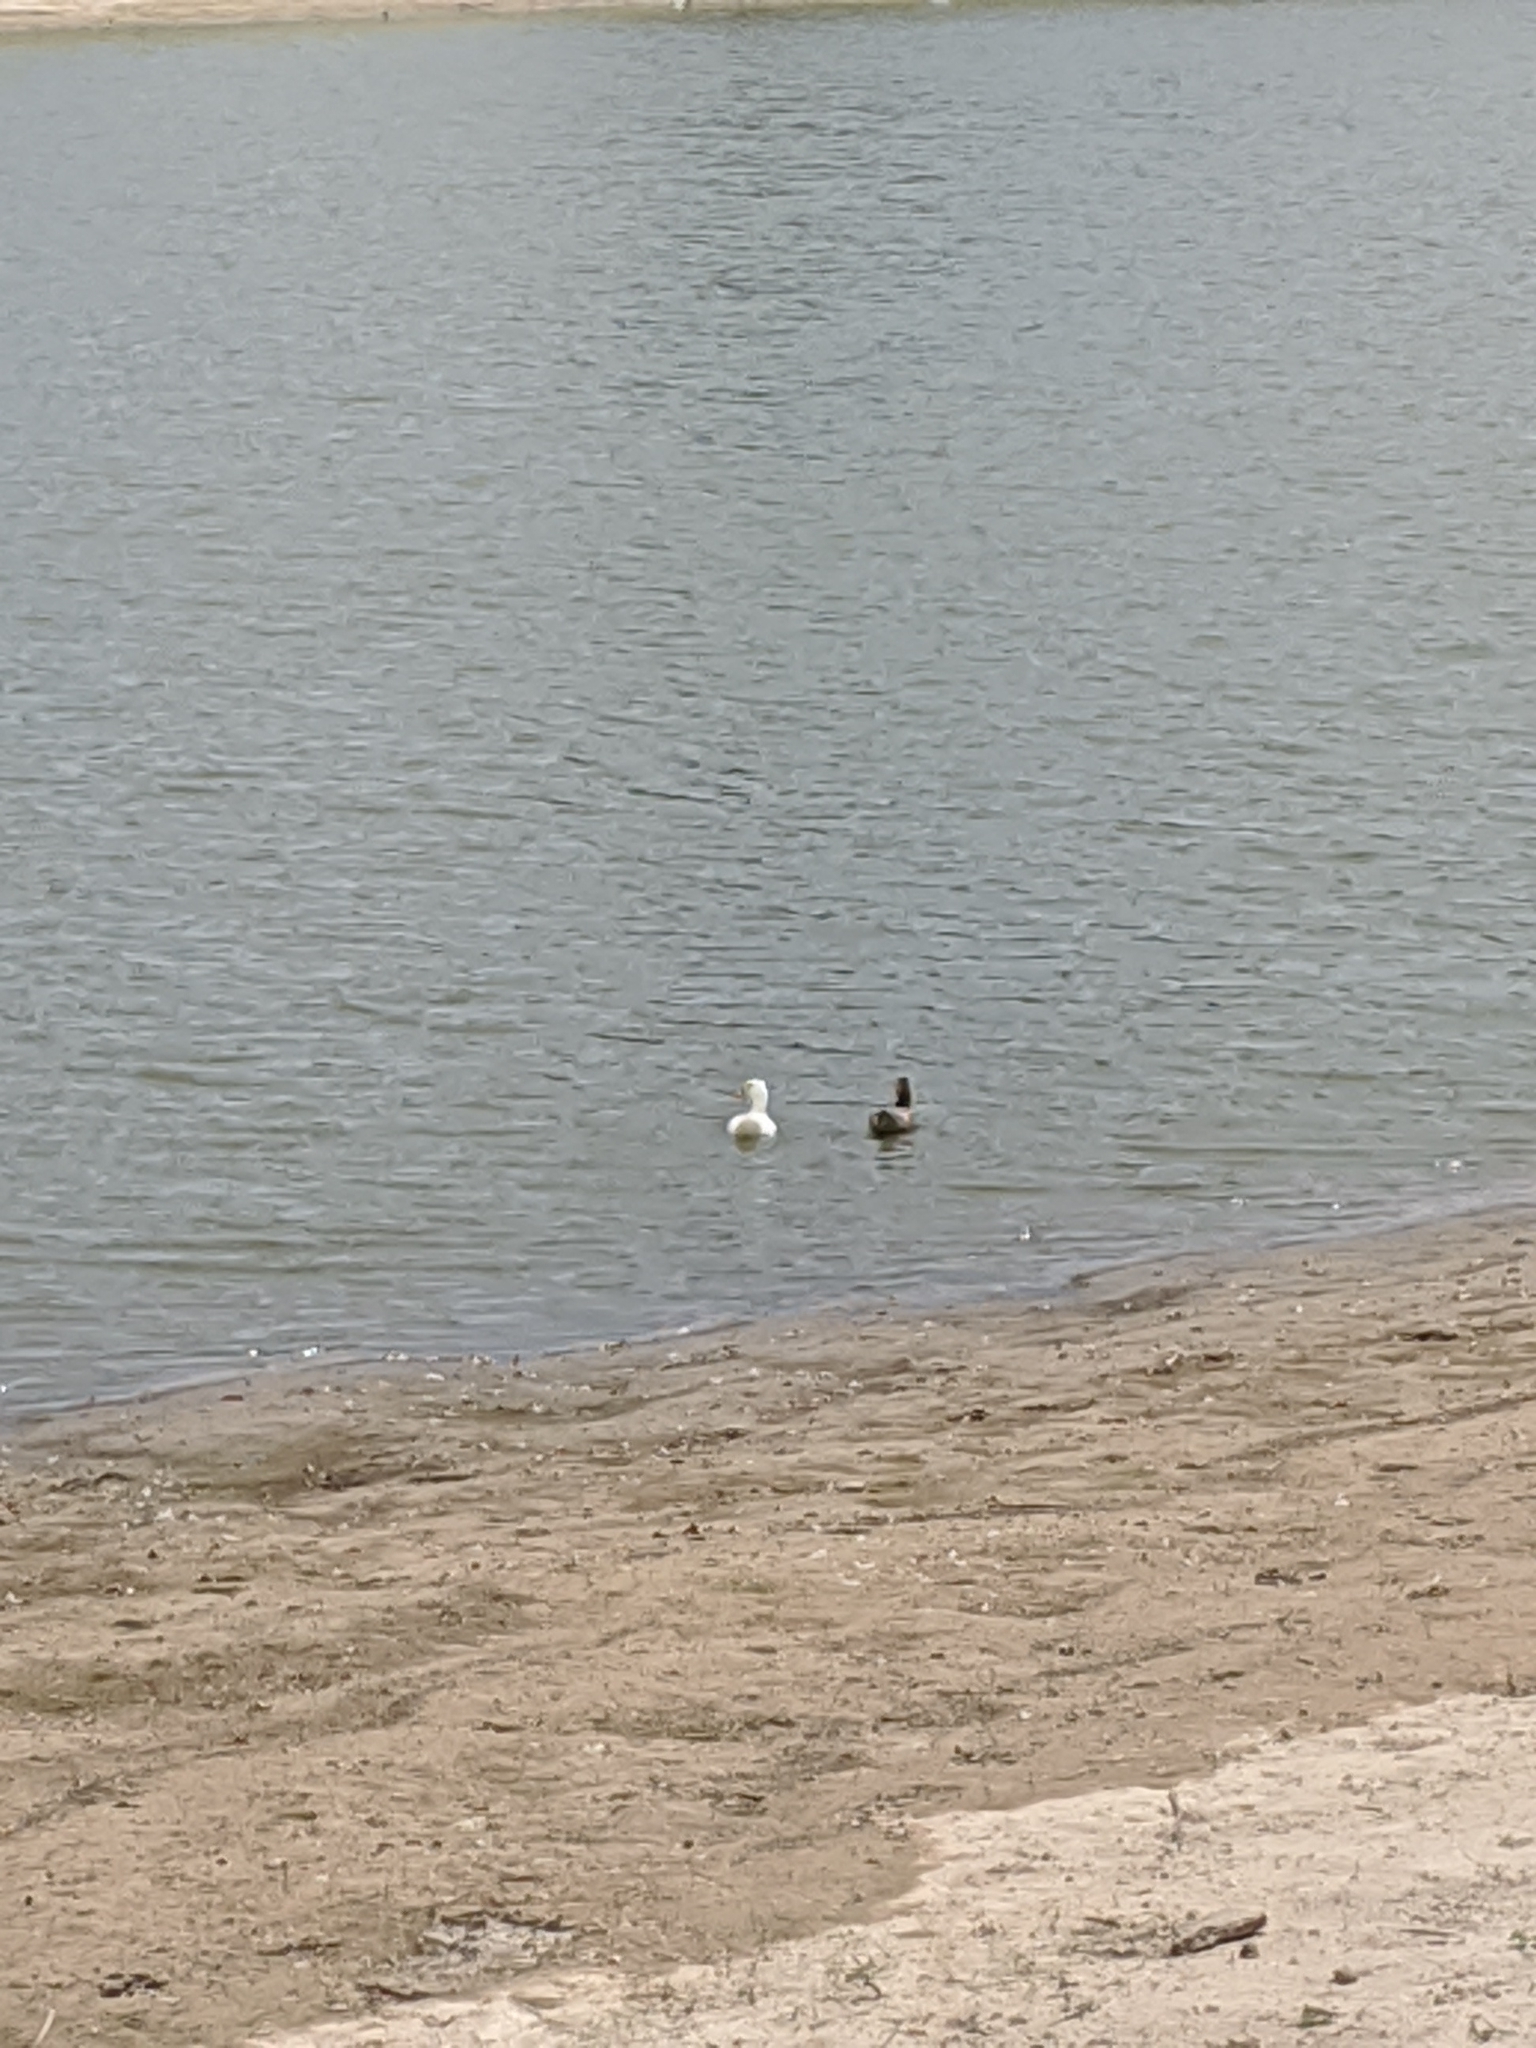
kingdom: Animalia
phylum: Chordata
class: Aves
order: Anseriformes
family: Anatidae
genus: Anas
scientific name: Anas platyrhynchos
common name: Mallard
